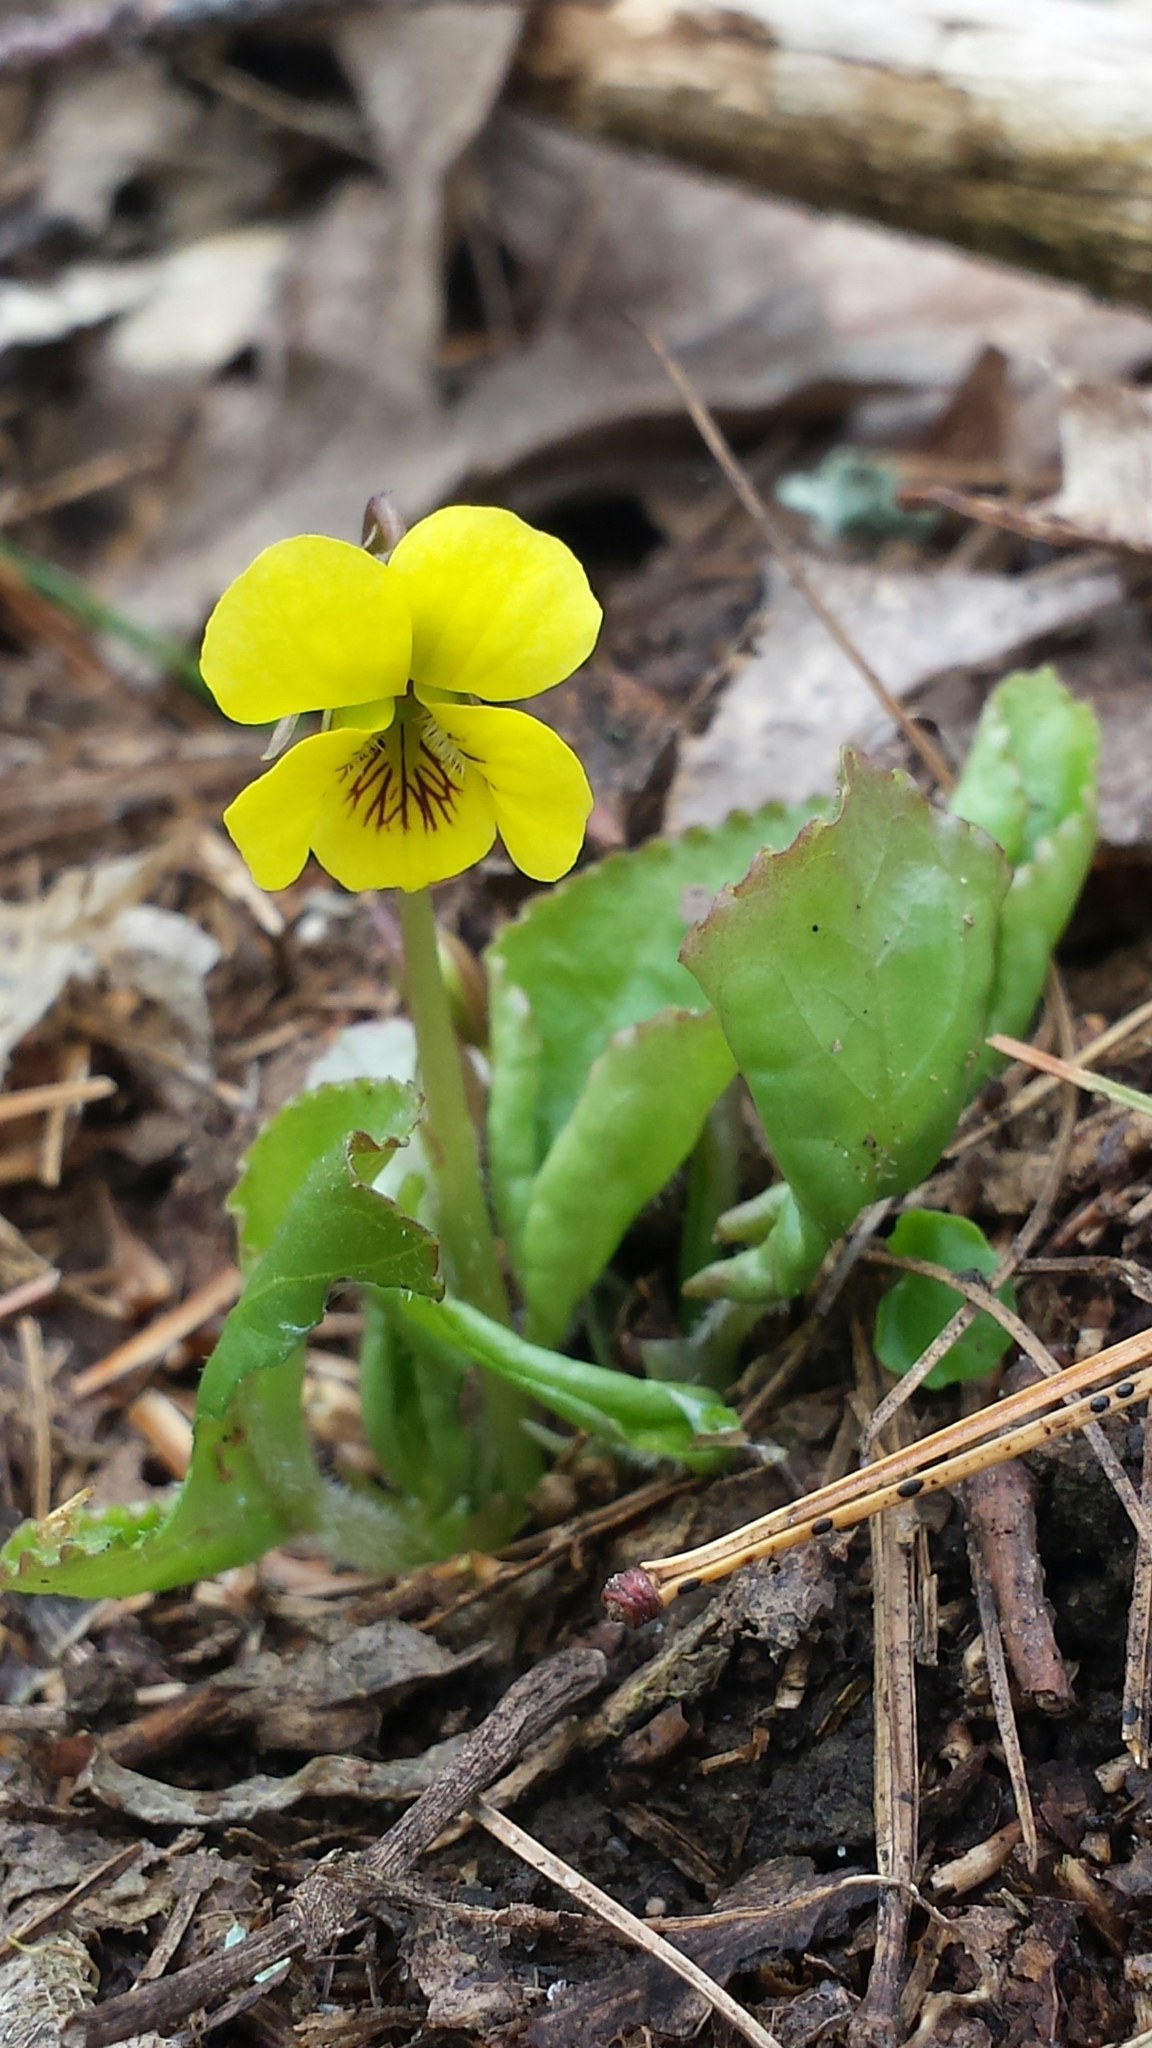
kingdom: Plantae
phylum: Tracheophyta
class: Magnoliopsida
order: Malpighiales
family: Violaceae
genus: Viola
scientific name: Viola rotundifolia
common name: Early yellow violet
